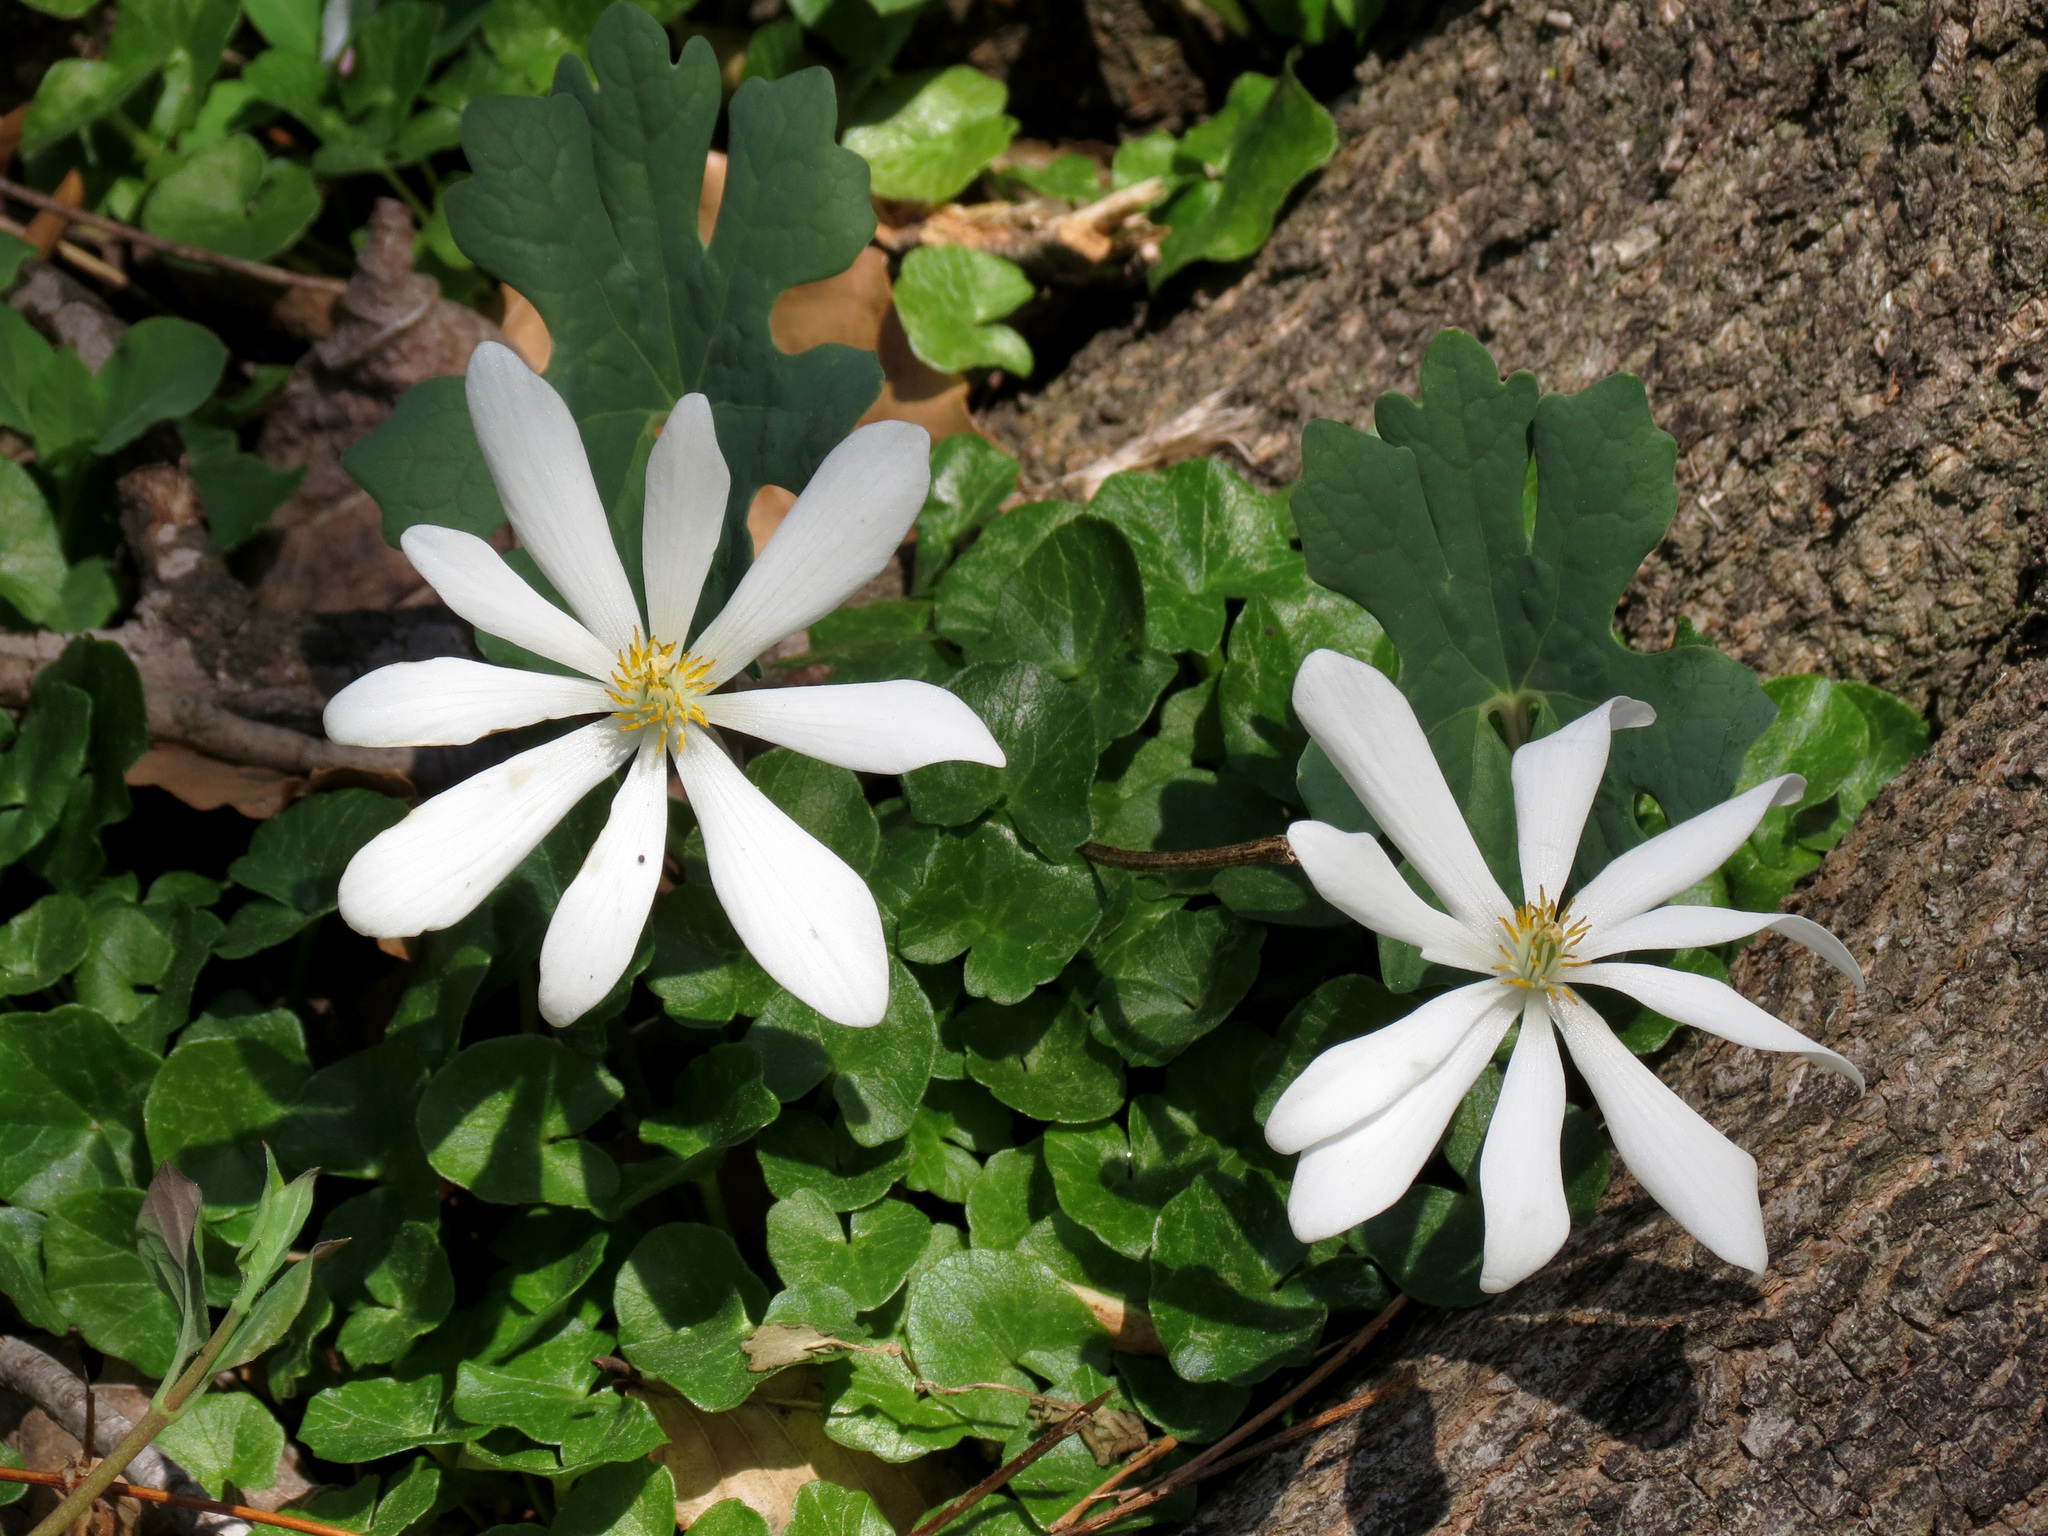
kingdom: Plantae
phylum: Tracheophyta
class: Magnoliopsida
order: Ranunculales
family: Papaveraceae
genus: Sanguinaria
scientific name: Sanguinaria canadensis
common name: Bloodroot
